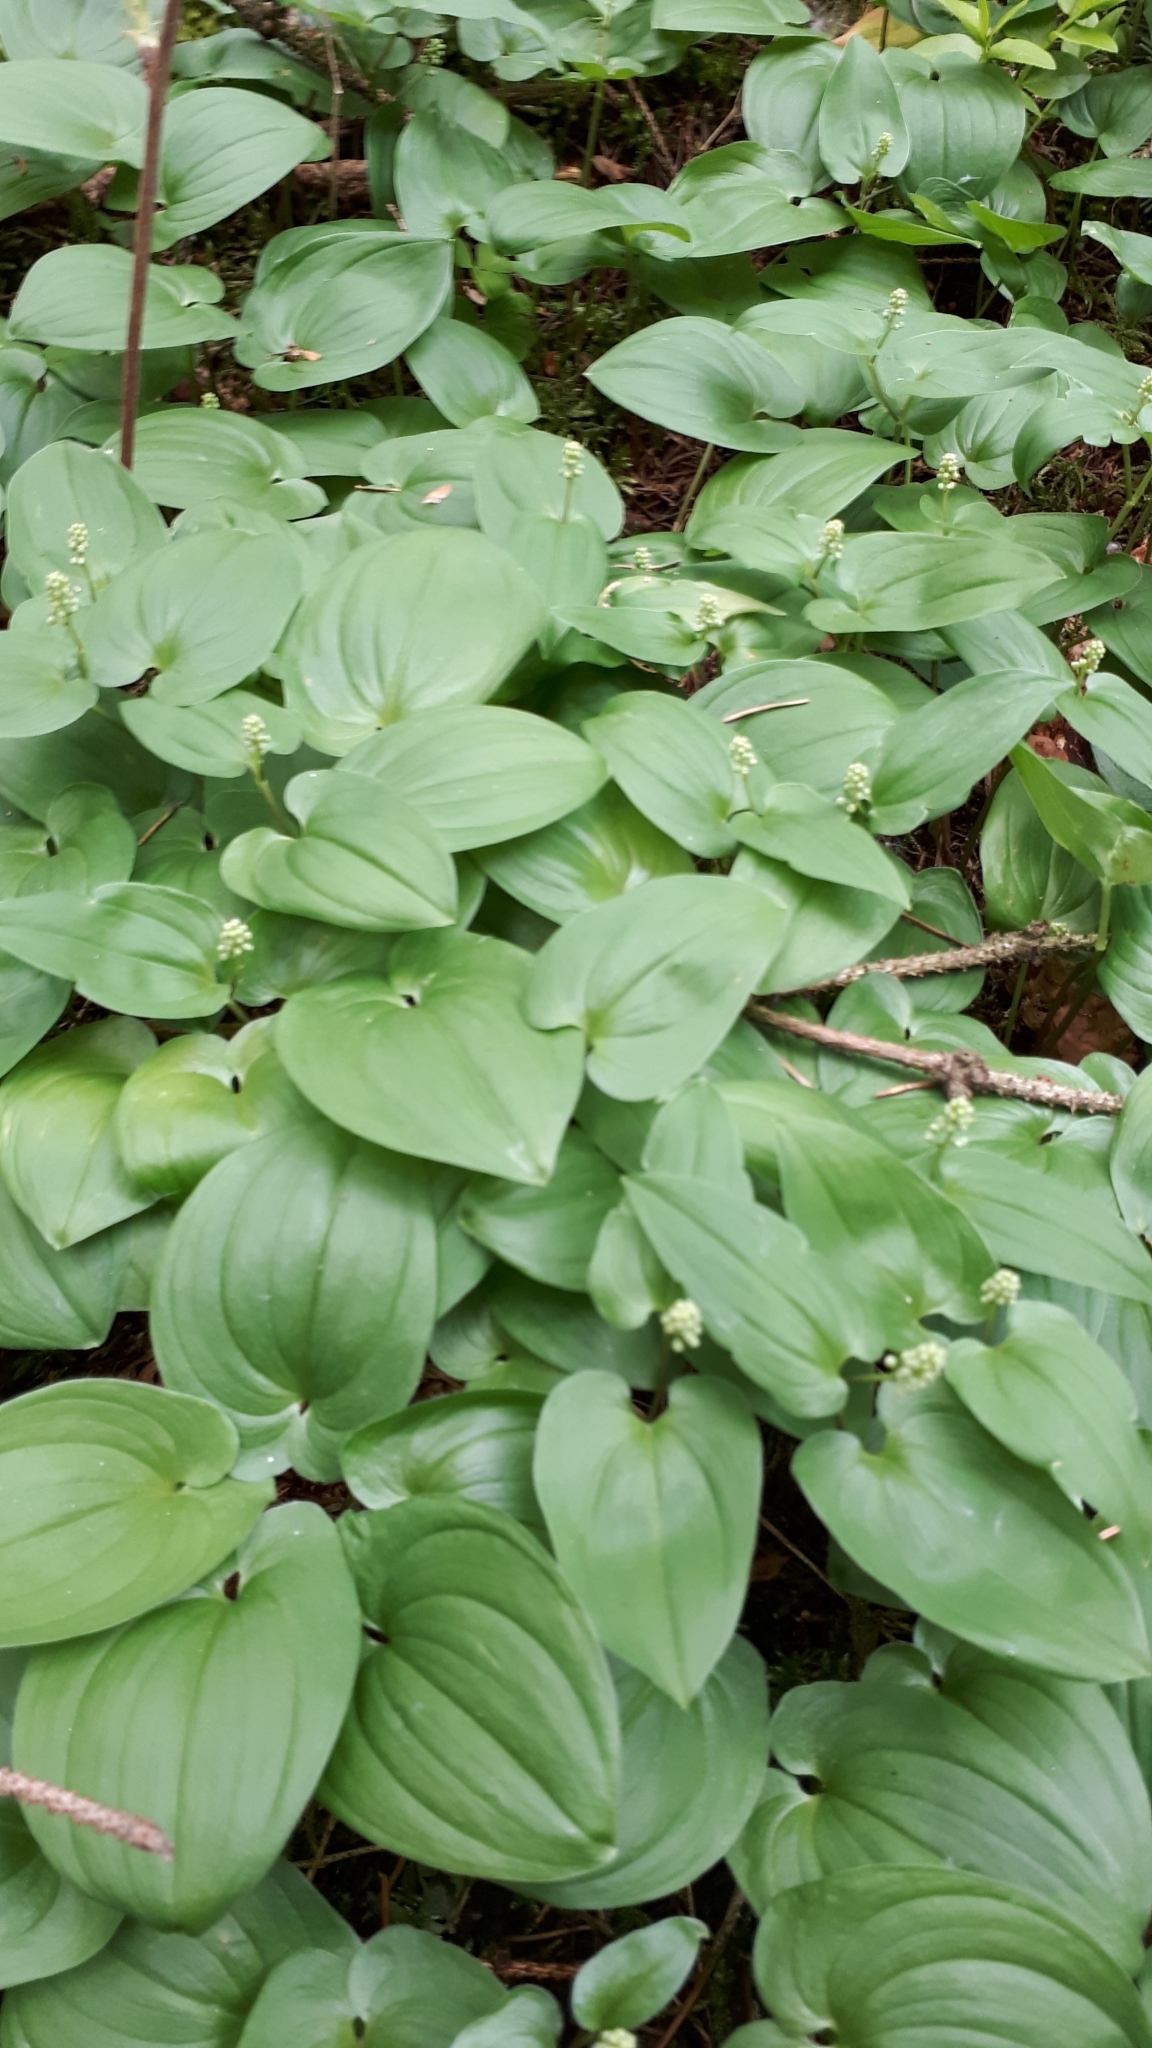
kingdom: Plantae
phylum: Tracheophyta
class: Liliopsida
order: Asparagales
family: Asparagaceae
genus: Maianthemum
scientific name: Maianthemum bifolium
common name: May lily
